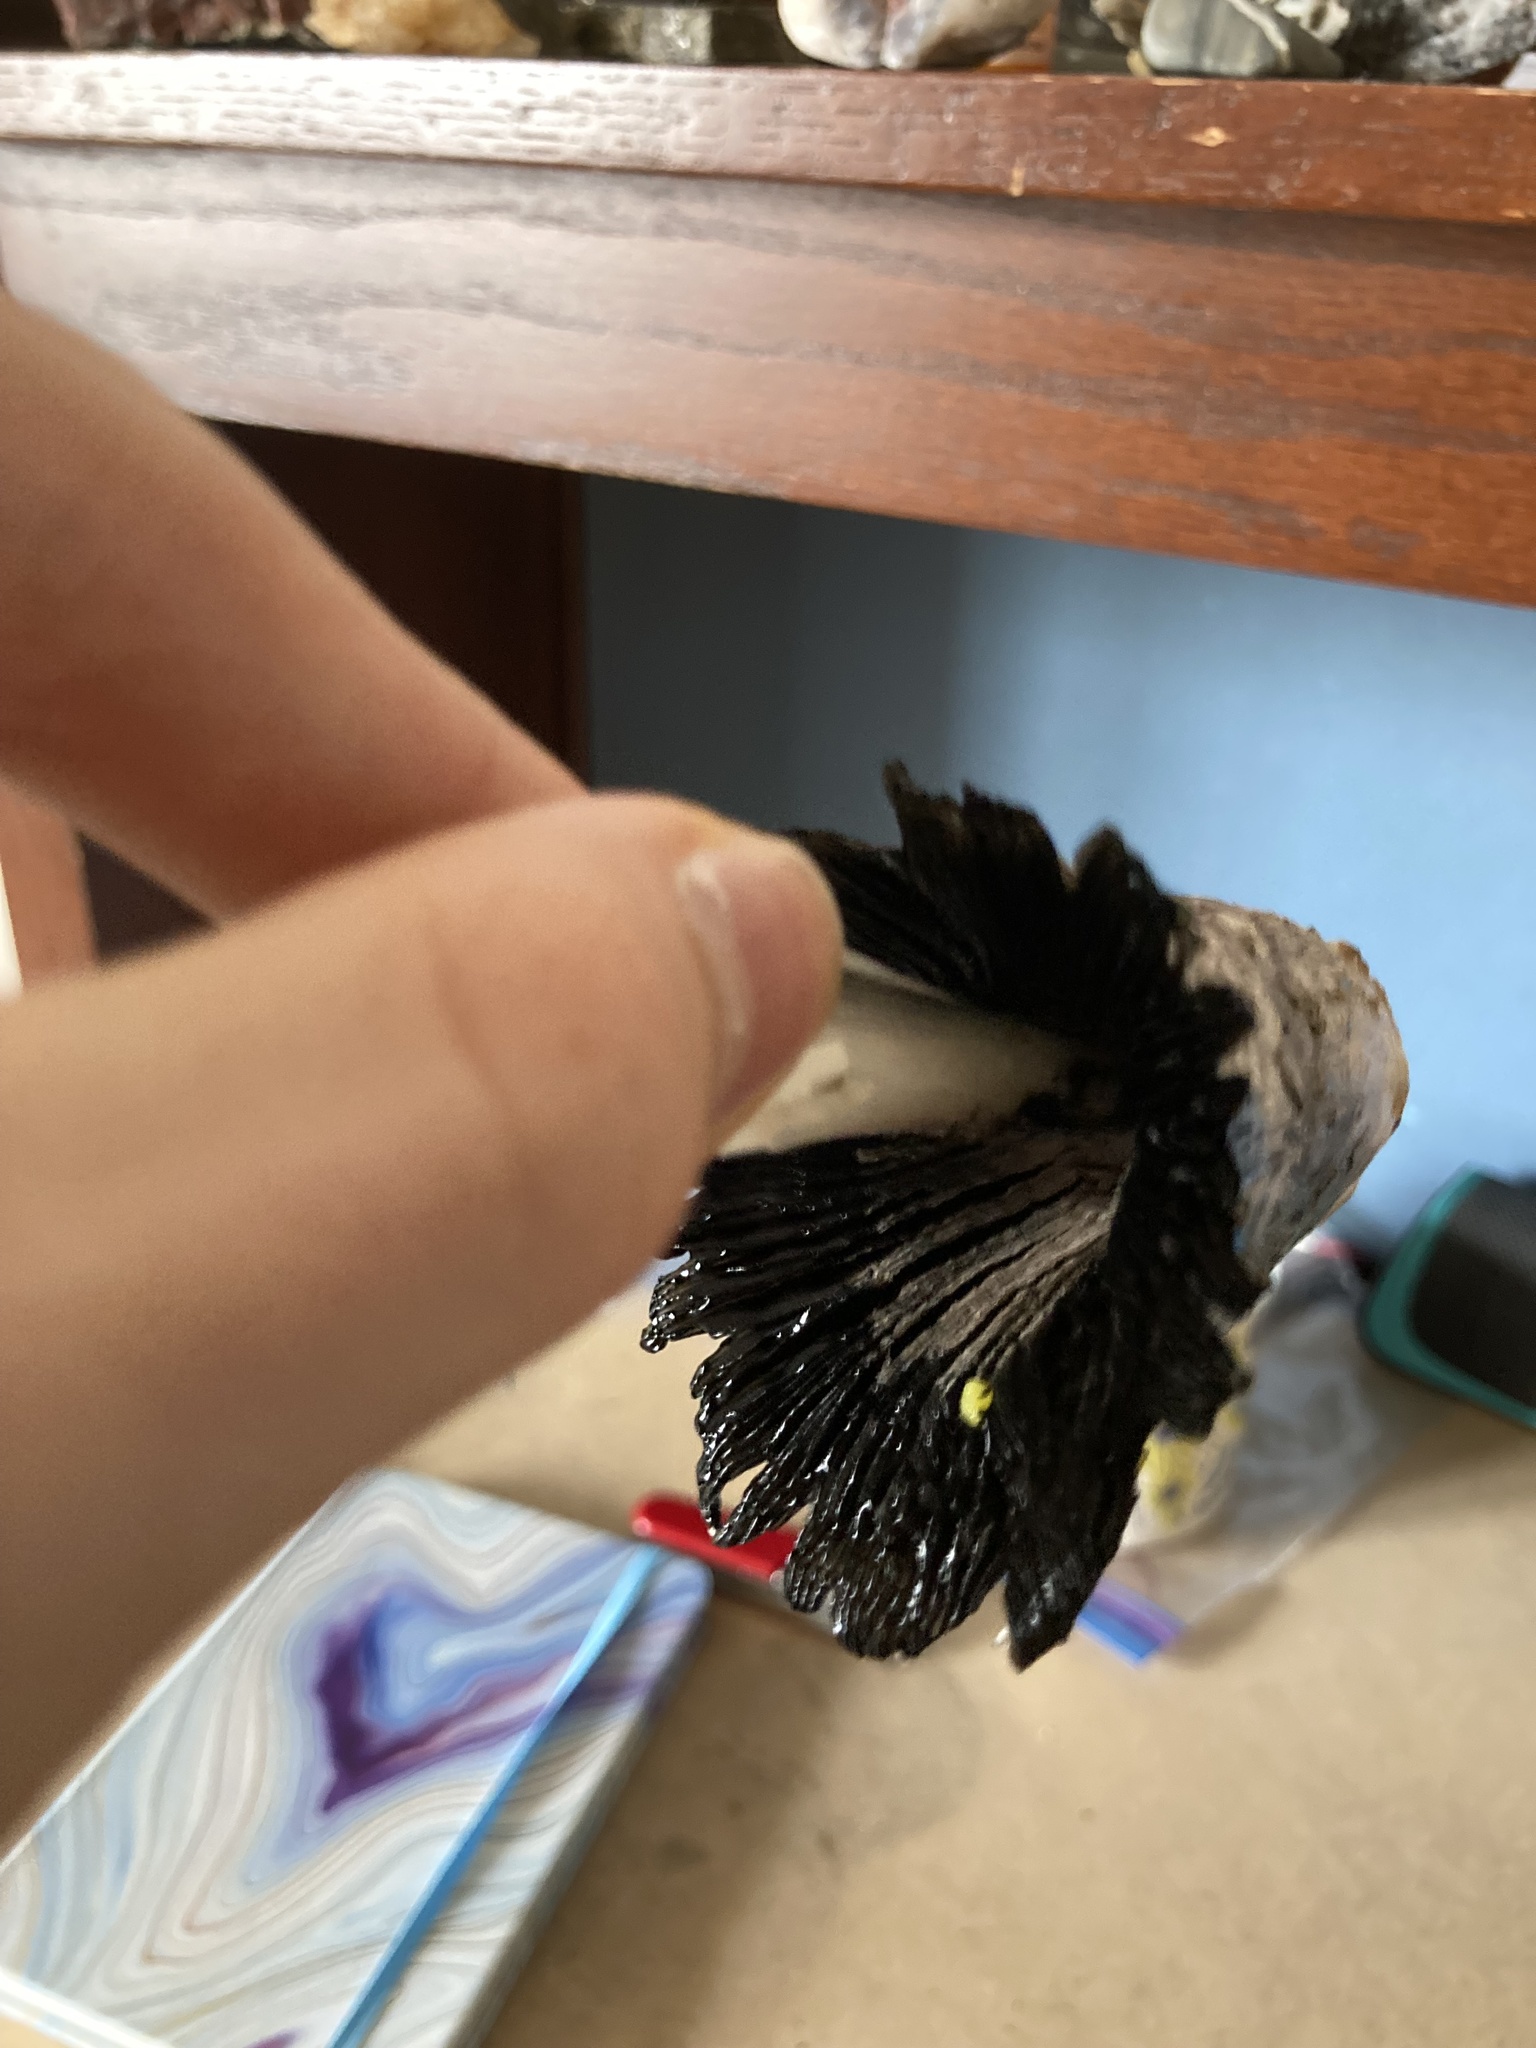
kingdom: Fungi
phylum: Basidiomycota
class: Agaricomycetes
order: Agaricales
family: Agaricaceae
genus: Coprinus
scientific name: Coprinus comatus
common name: Lawyer's wig
